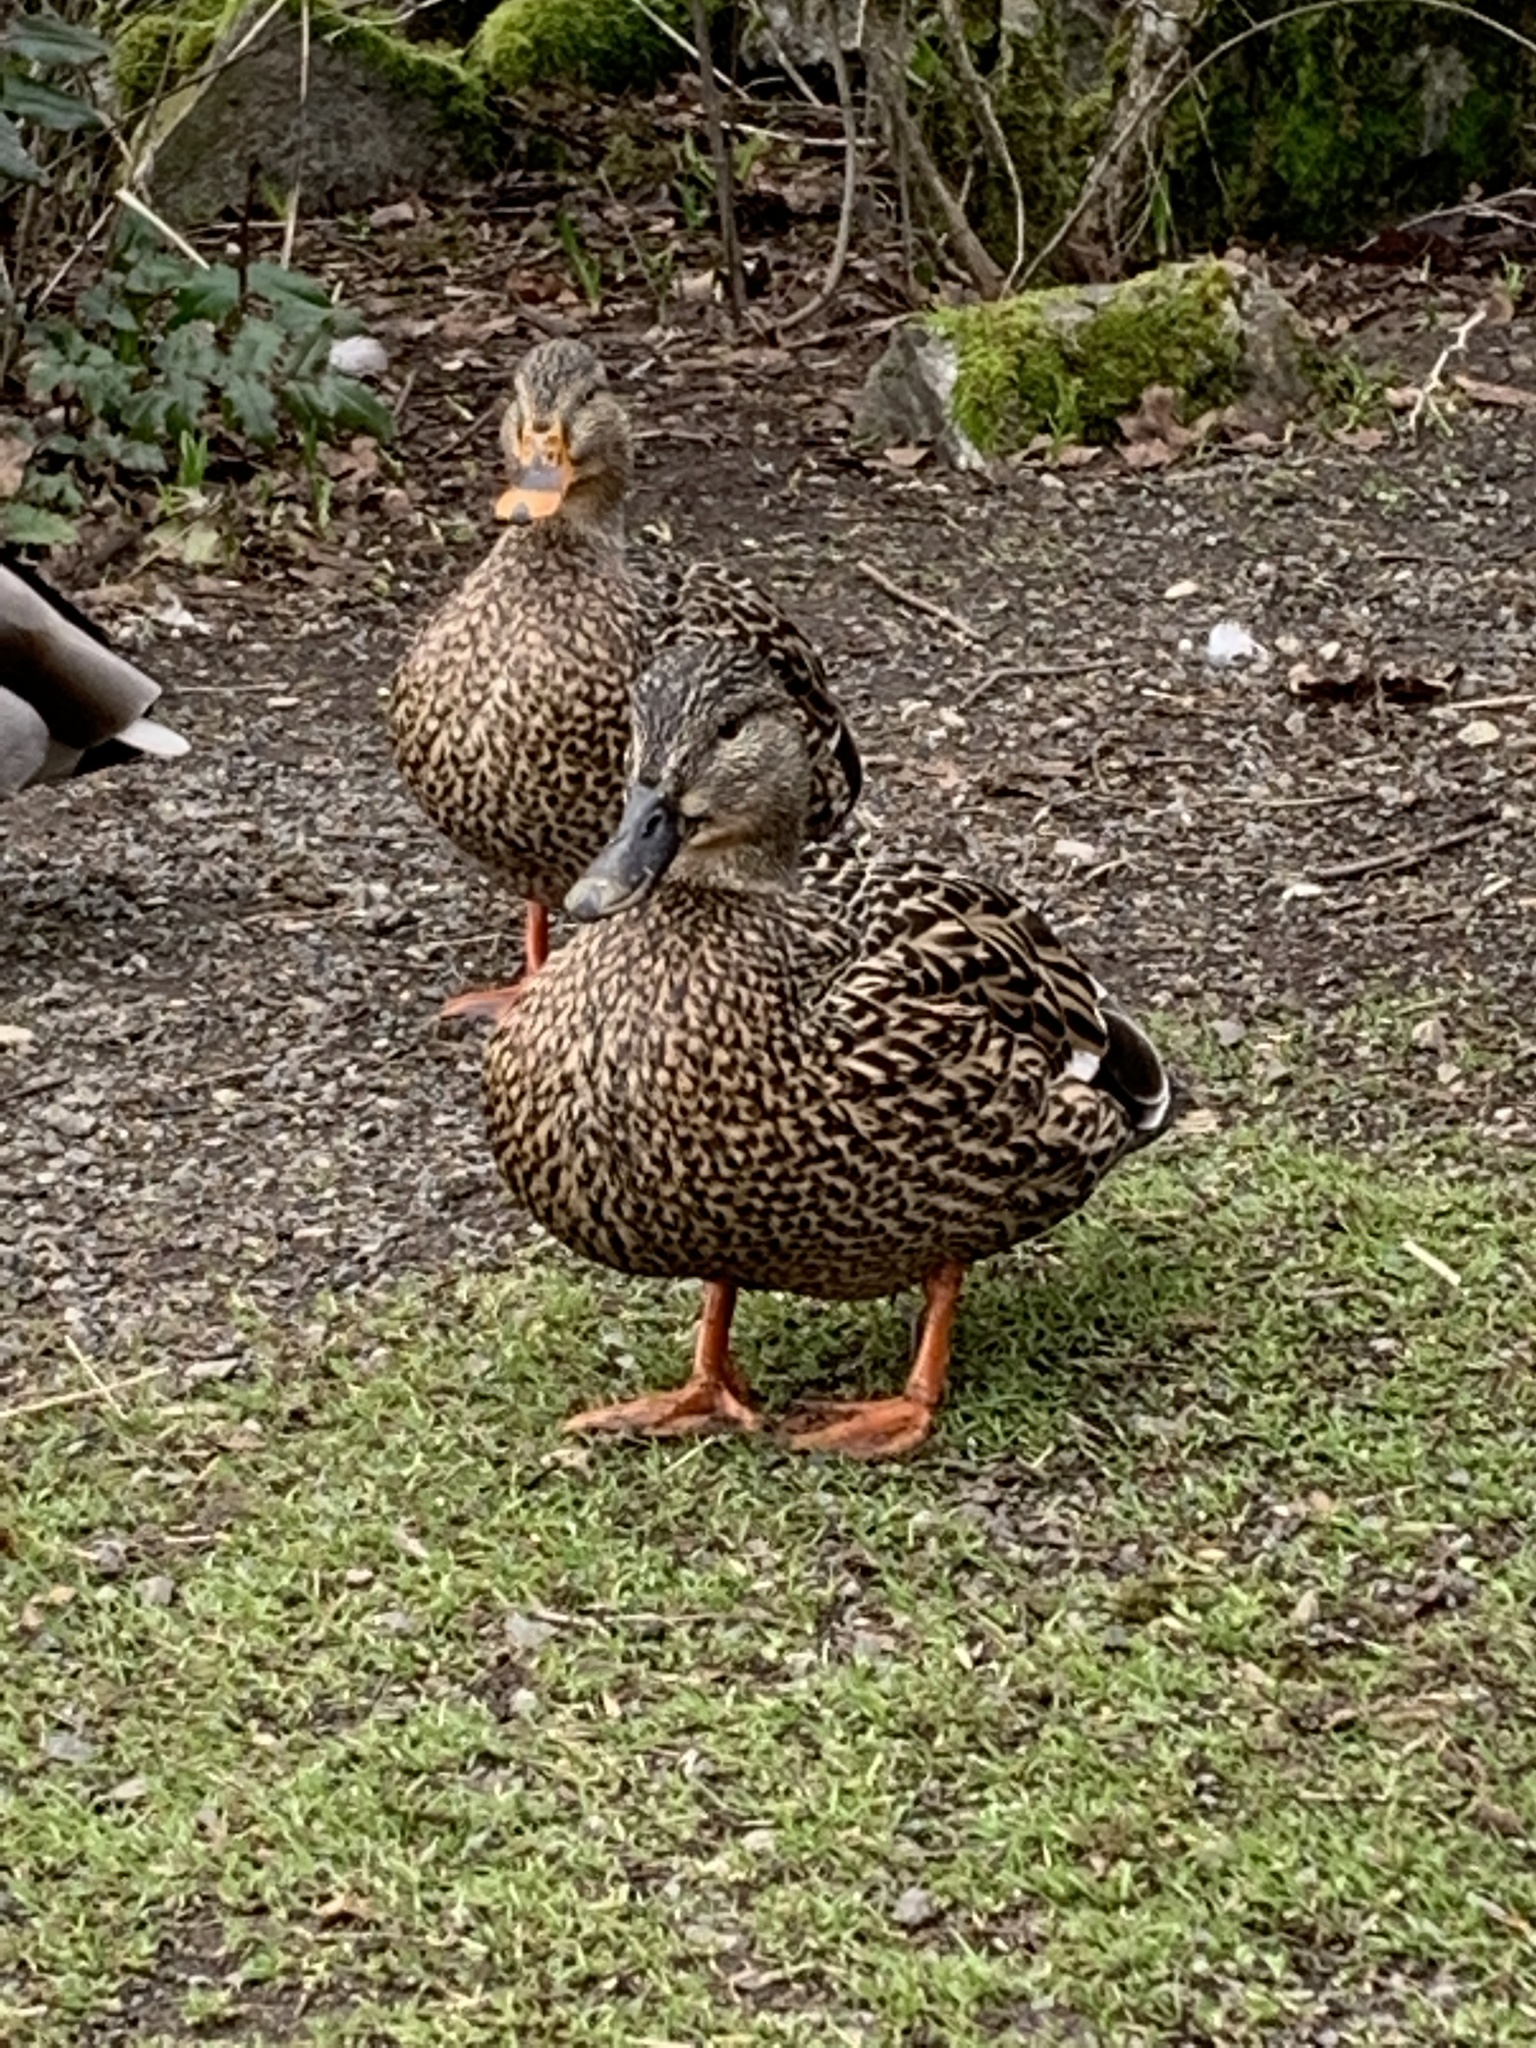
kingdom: Animalia
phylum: Chordata
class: Aves
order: Anseriformes
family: Anatidae
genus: Anas
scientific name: Anas platyrhynchos
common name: Mallard
